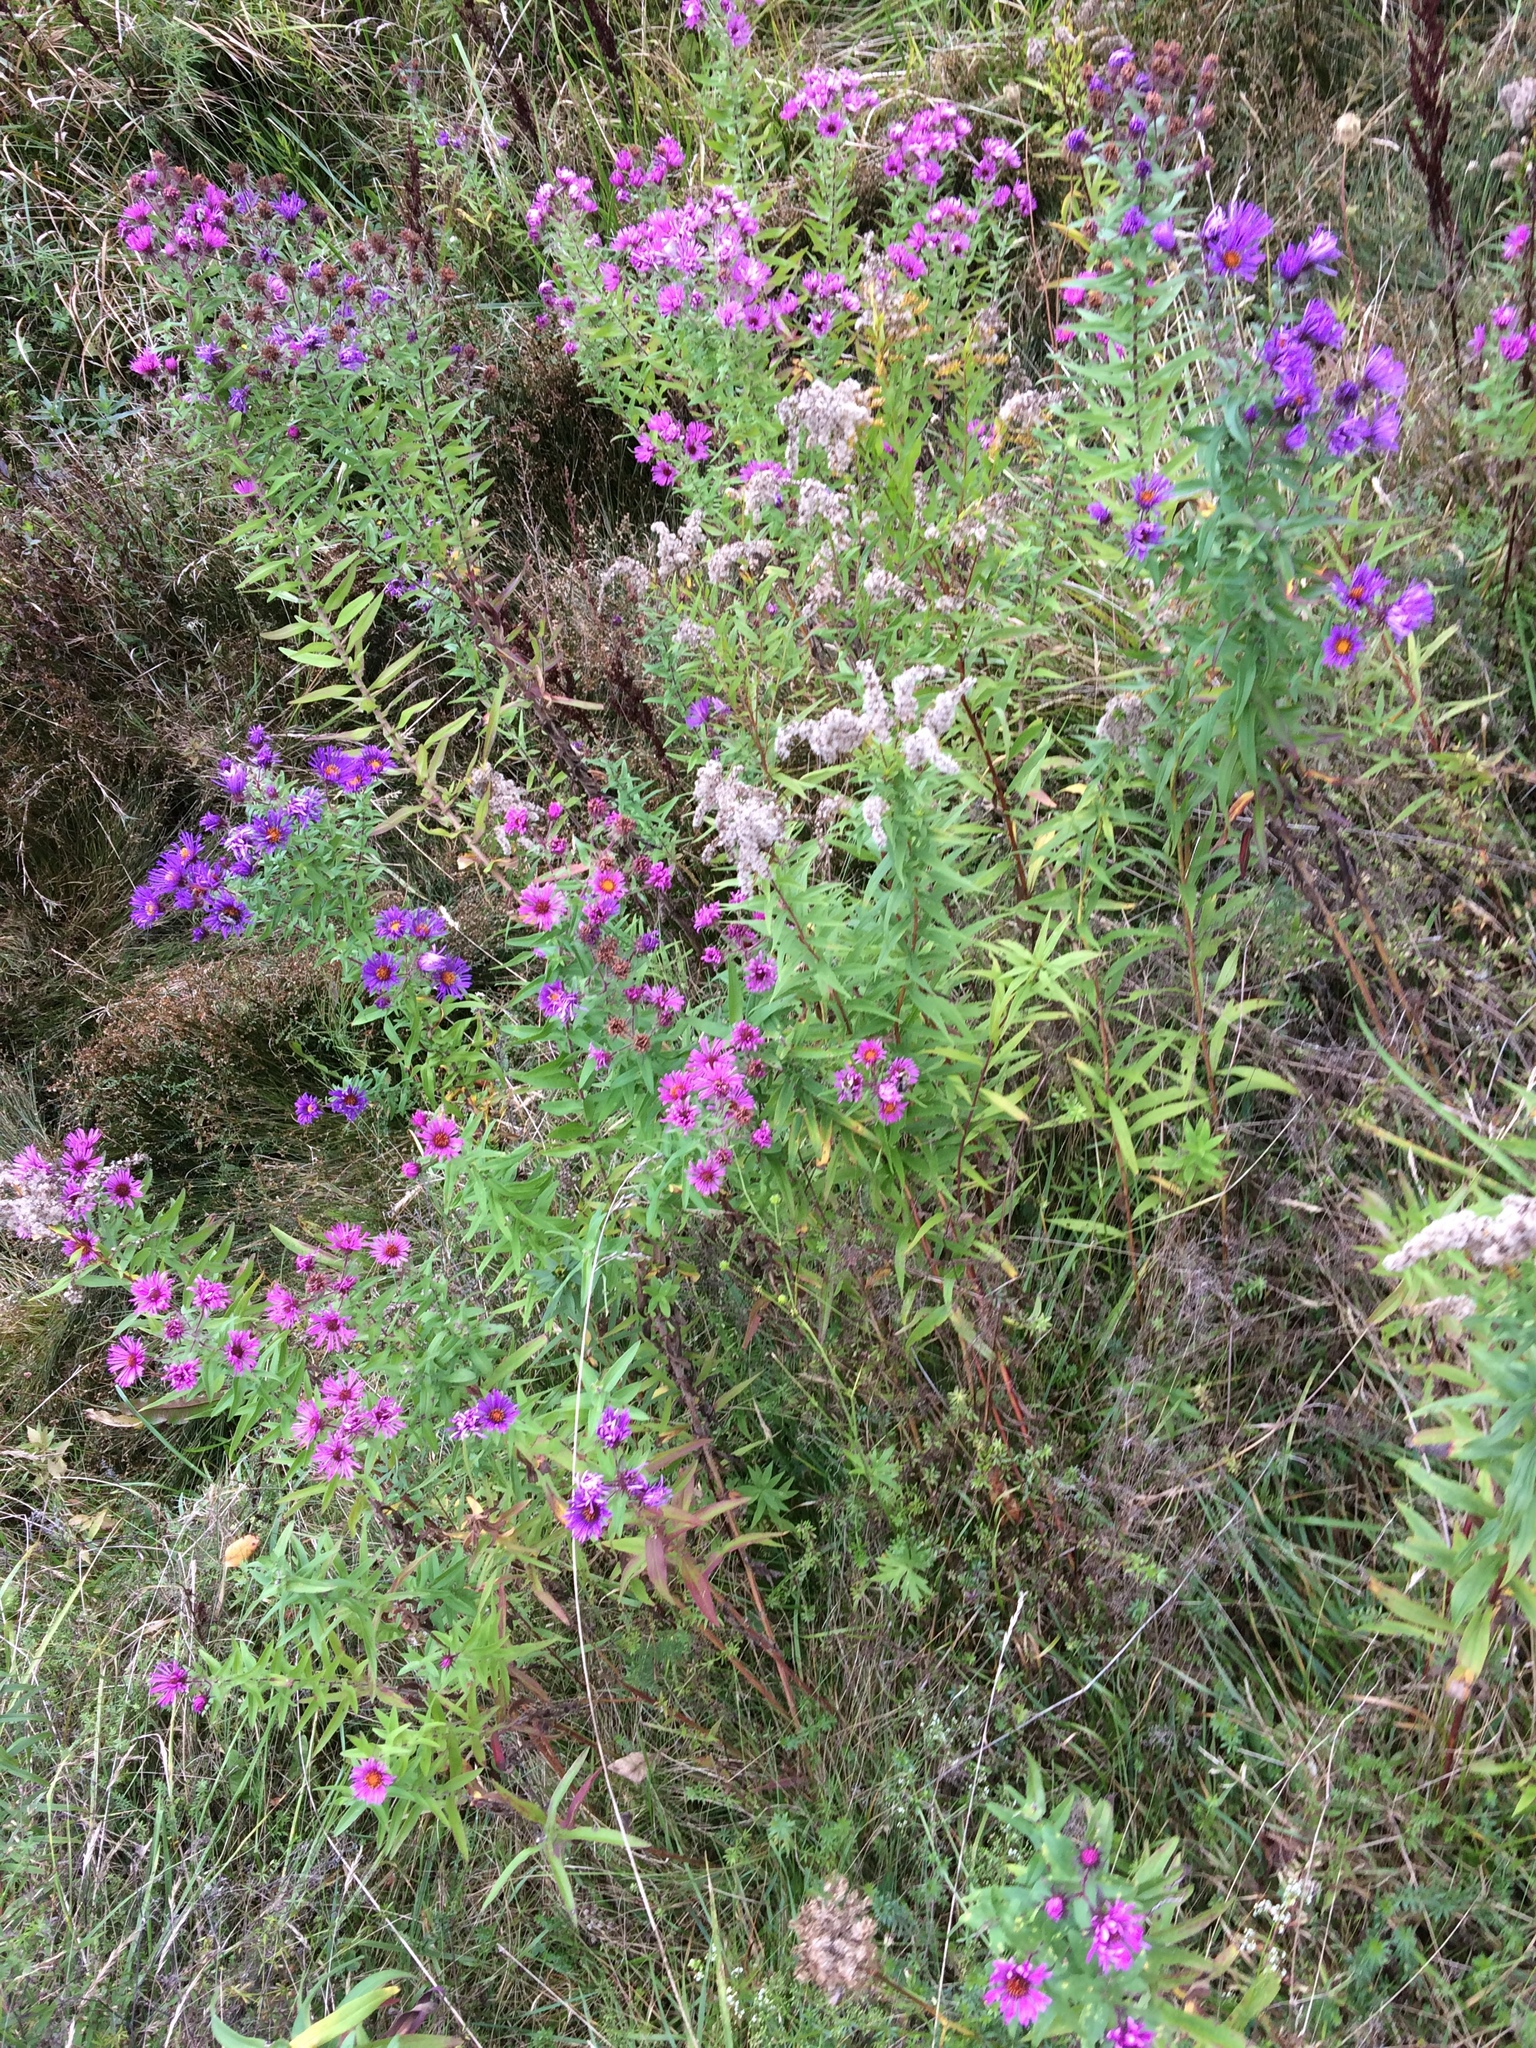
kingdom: Plantae
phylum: Tracheophyta
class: Magnoliopsida
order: Asterales
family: Asteraceae
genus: Symphyotrichum
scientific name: Symphyotrichum novae-angliae
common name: Michaelmas daisy
